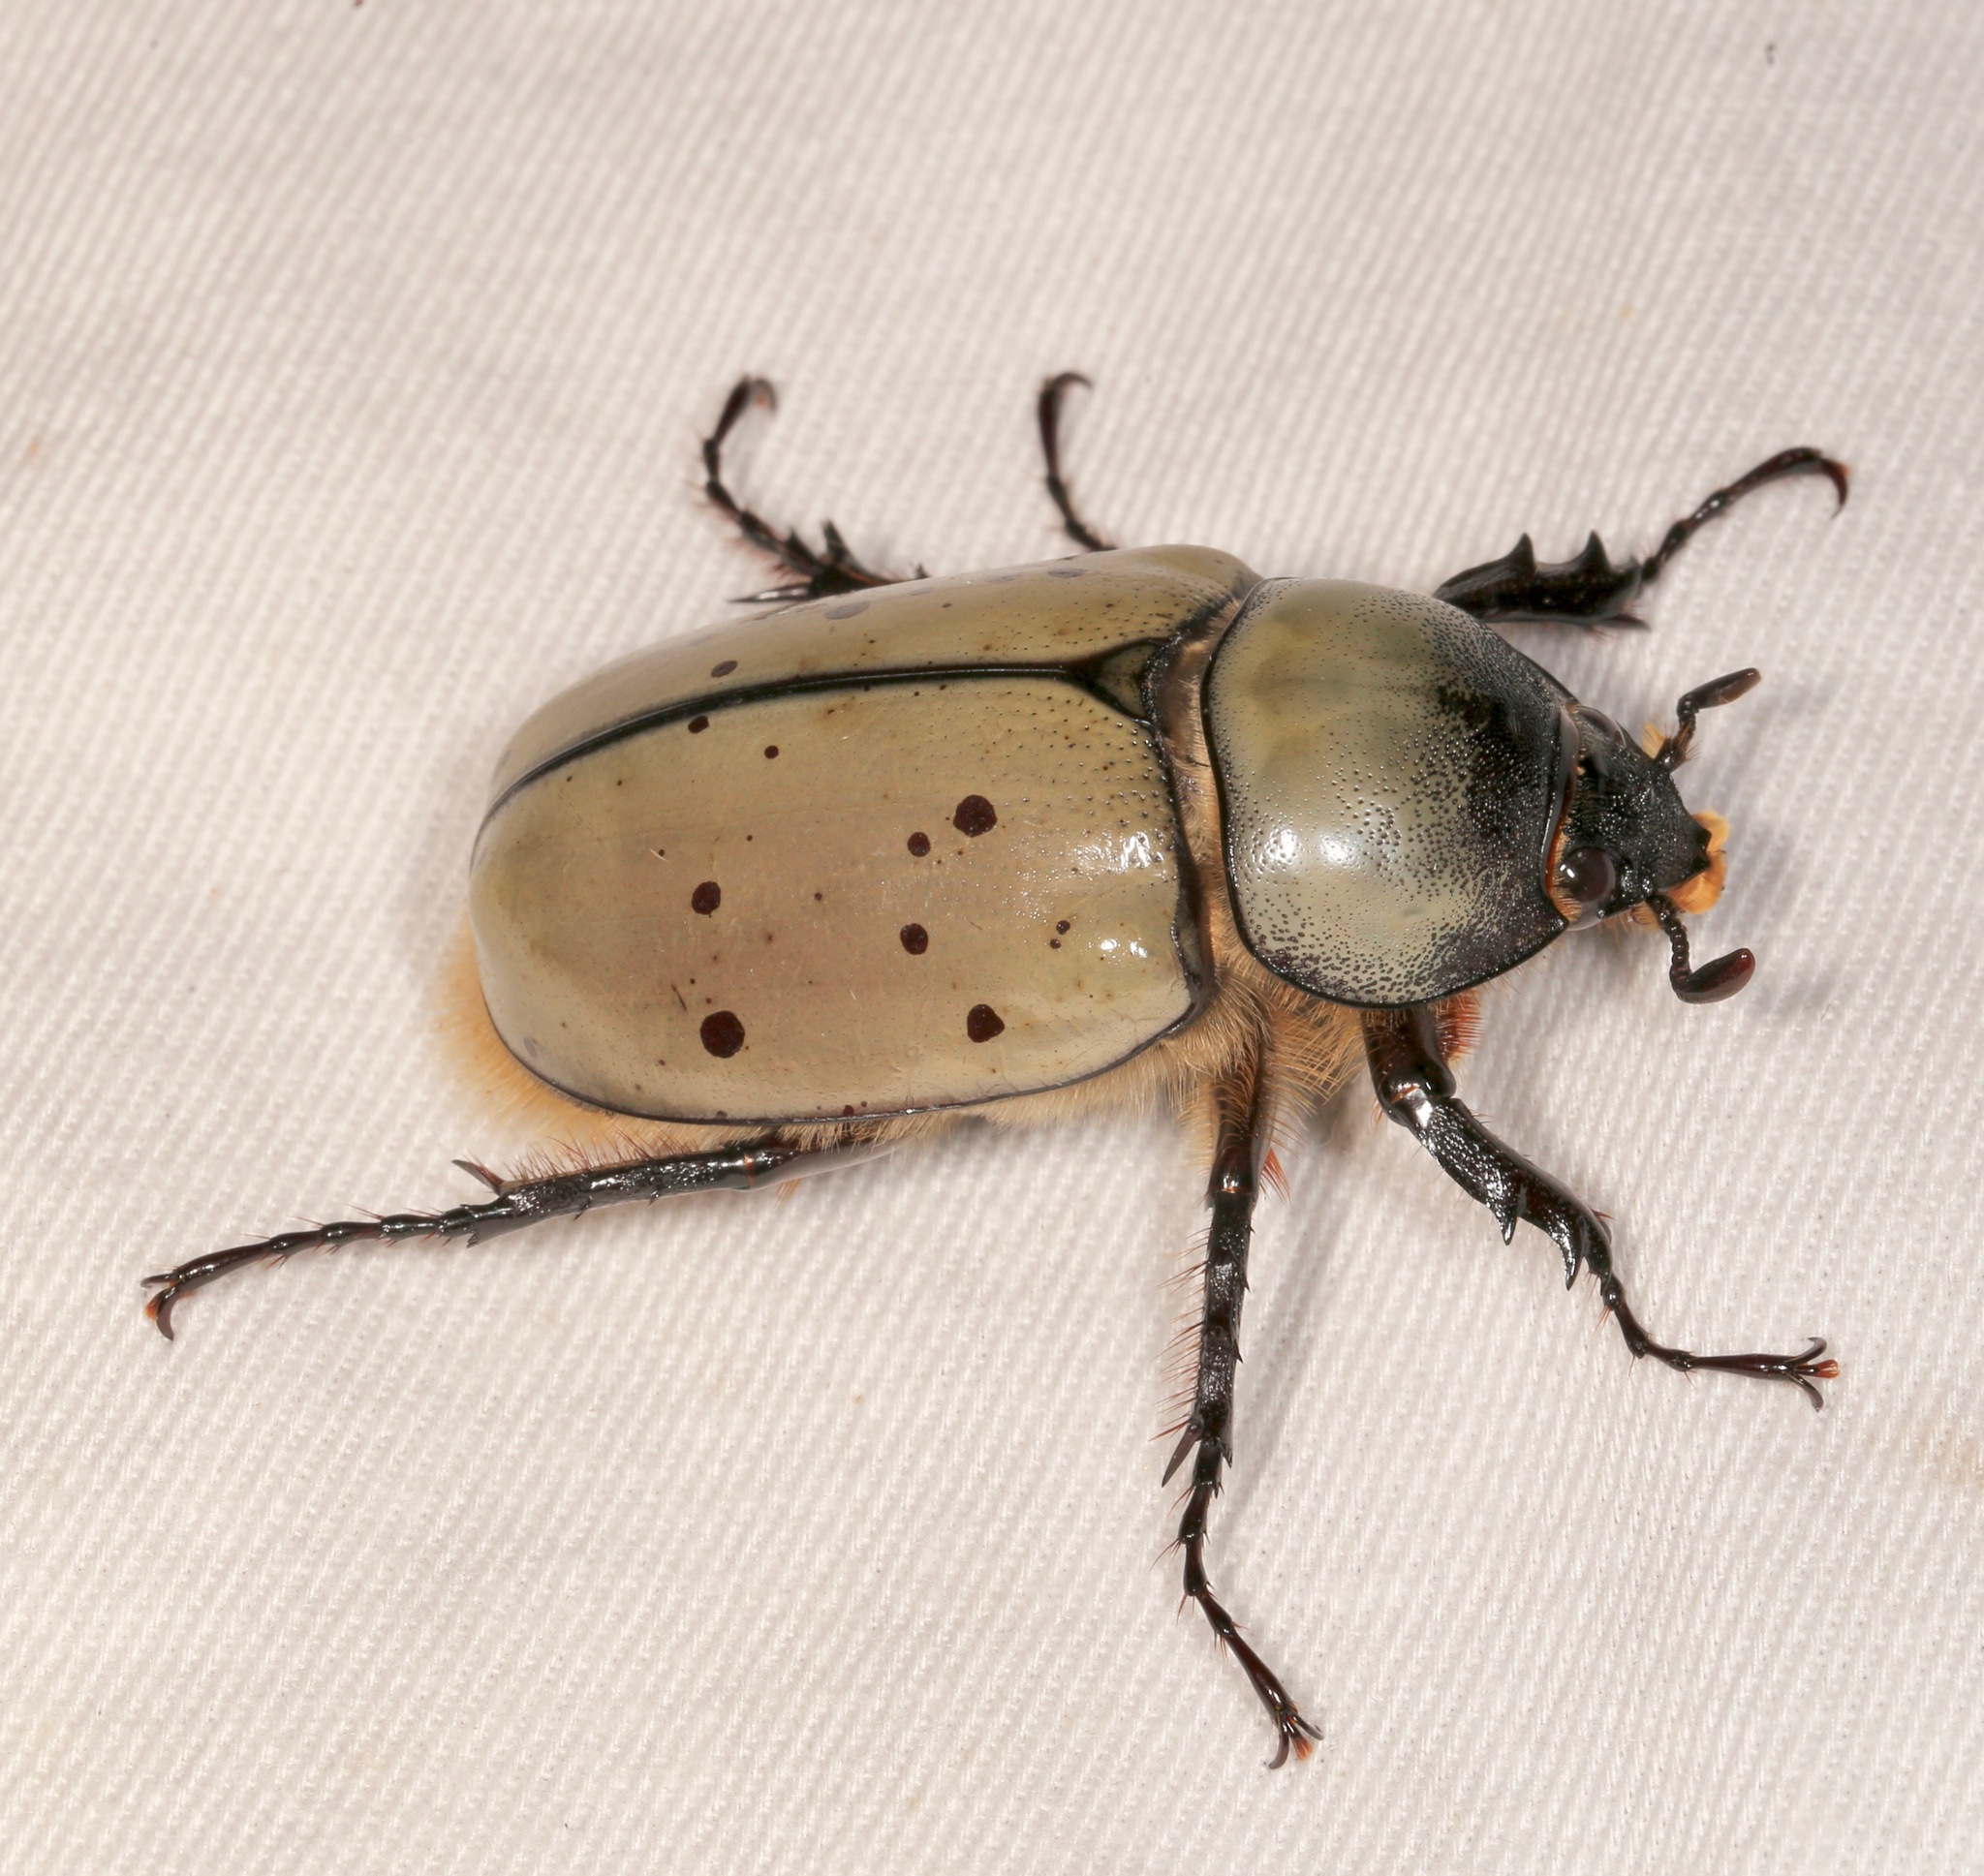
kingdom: Animalia
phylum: Arthropoda
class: Insecta
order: Coleoptera
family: Scarabaeidae
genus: Dynastes
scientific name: Dynastes grantii
